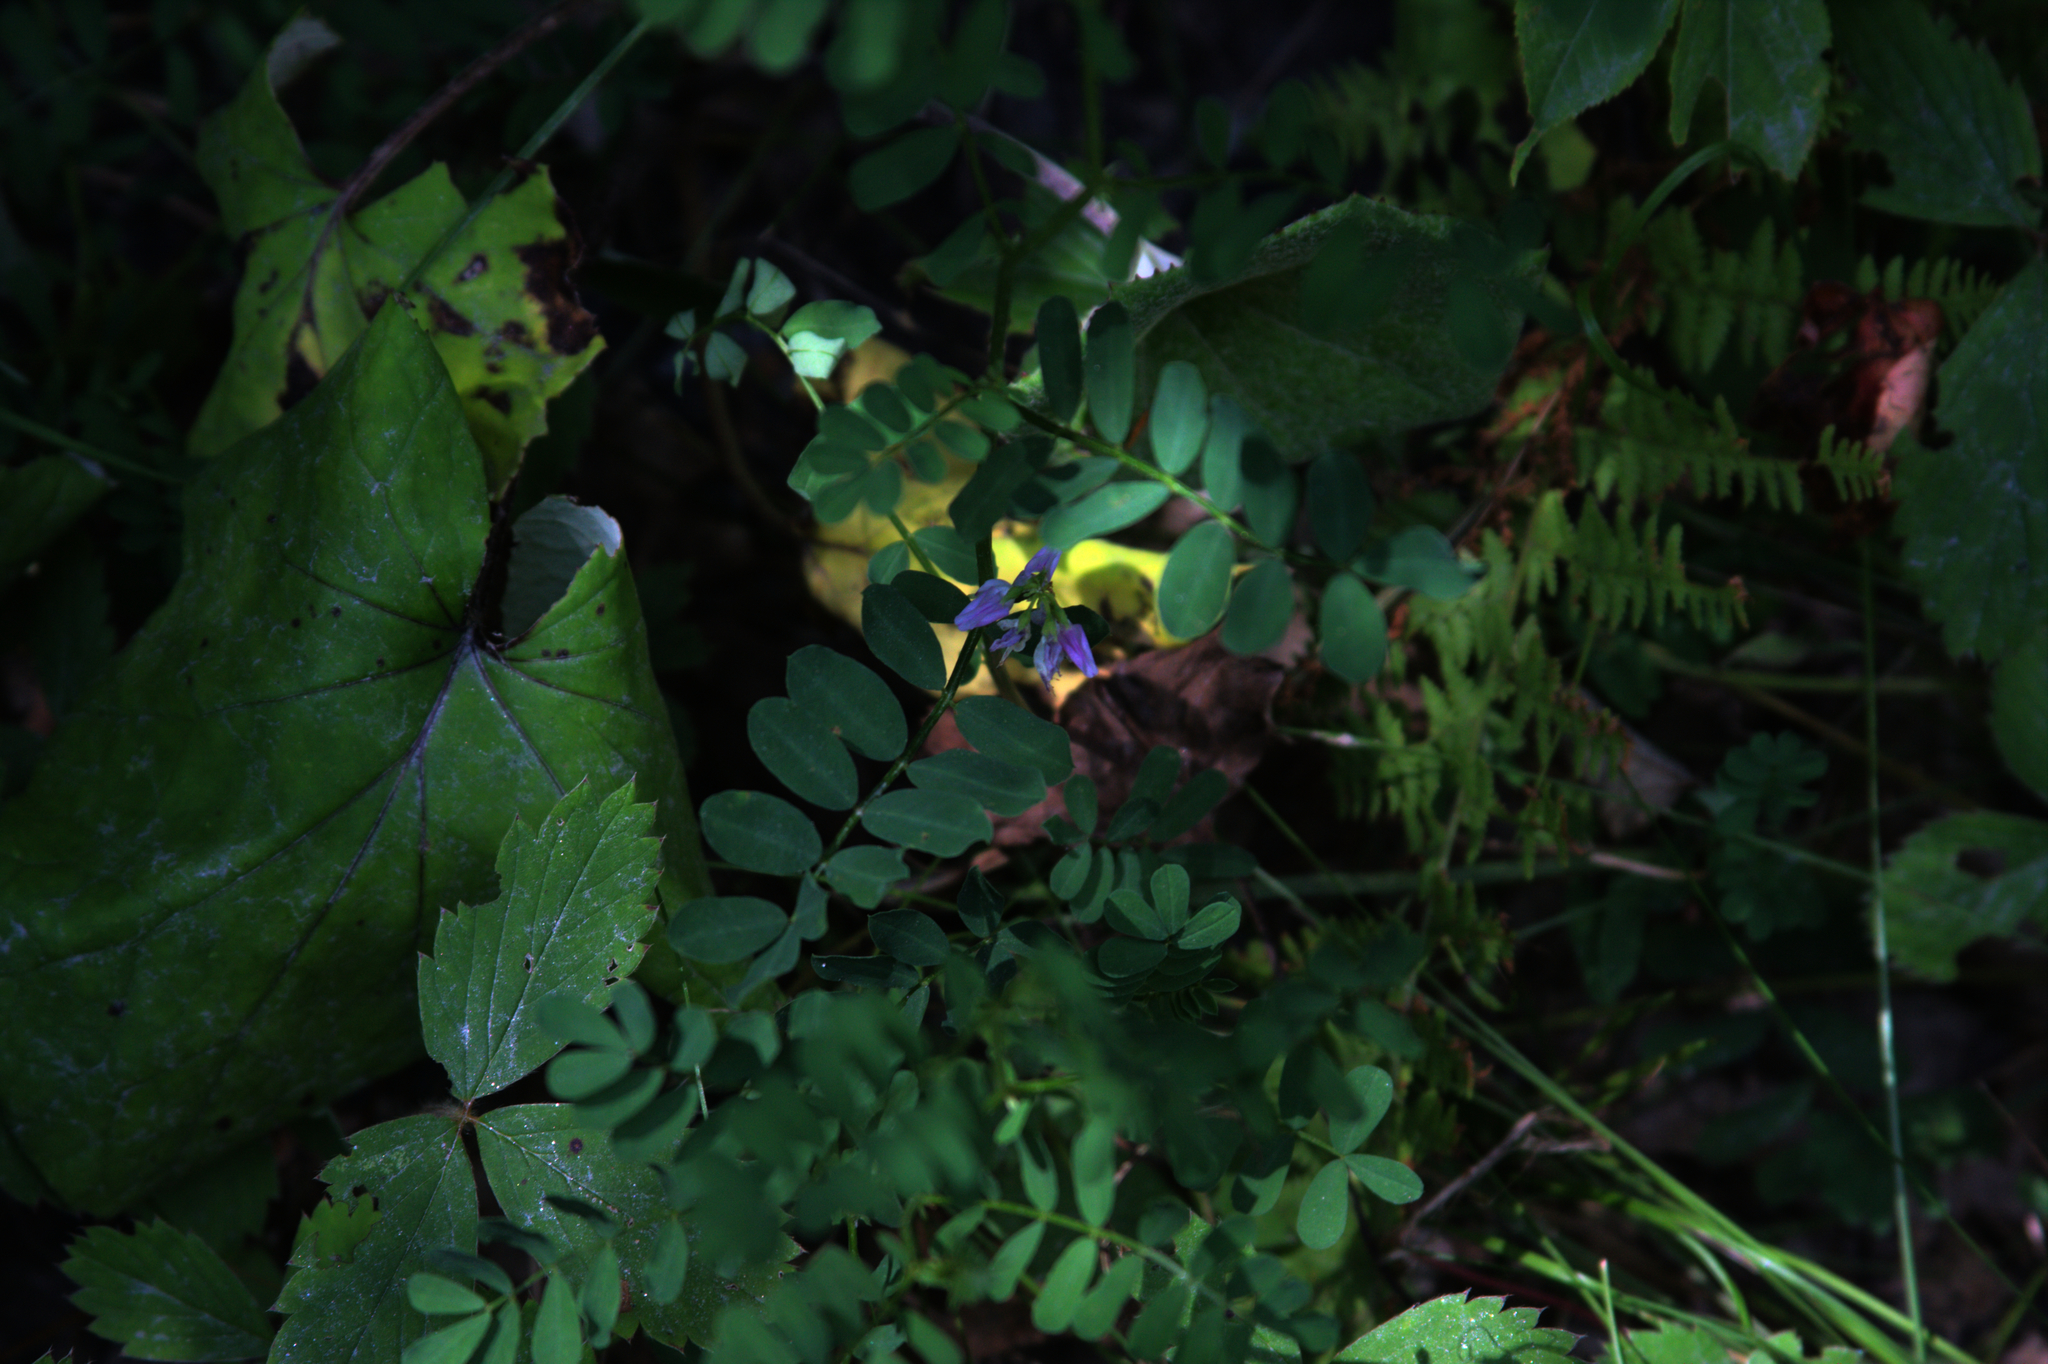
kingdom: Plantae
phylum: Tracheophyta
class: Magnoliopsida
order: Fabales
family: Fabaceae
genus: Coronilla
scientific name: Coronilla varia
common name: Crownvetch
